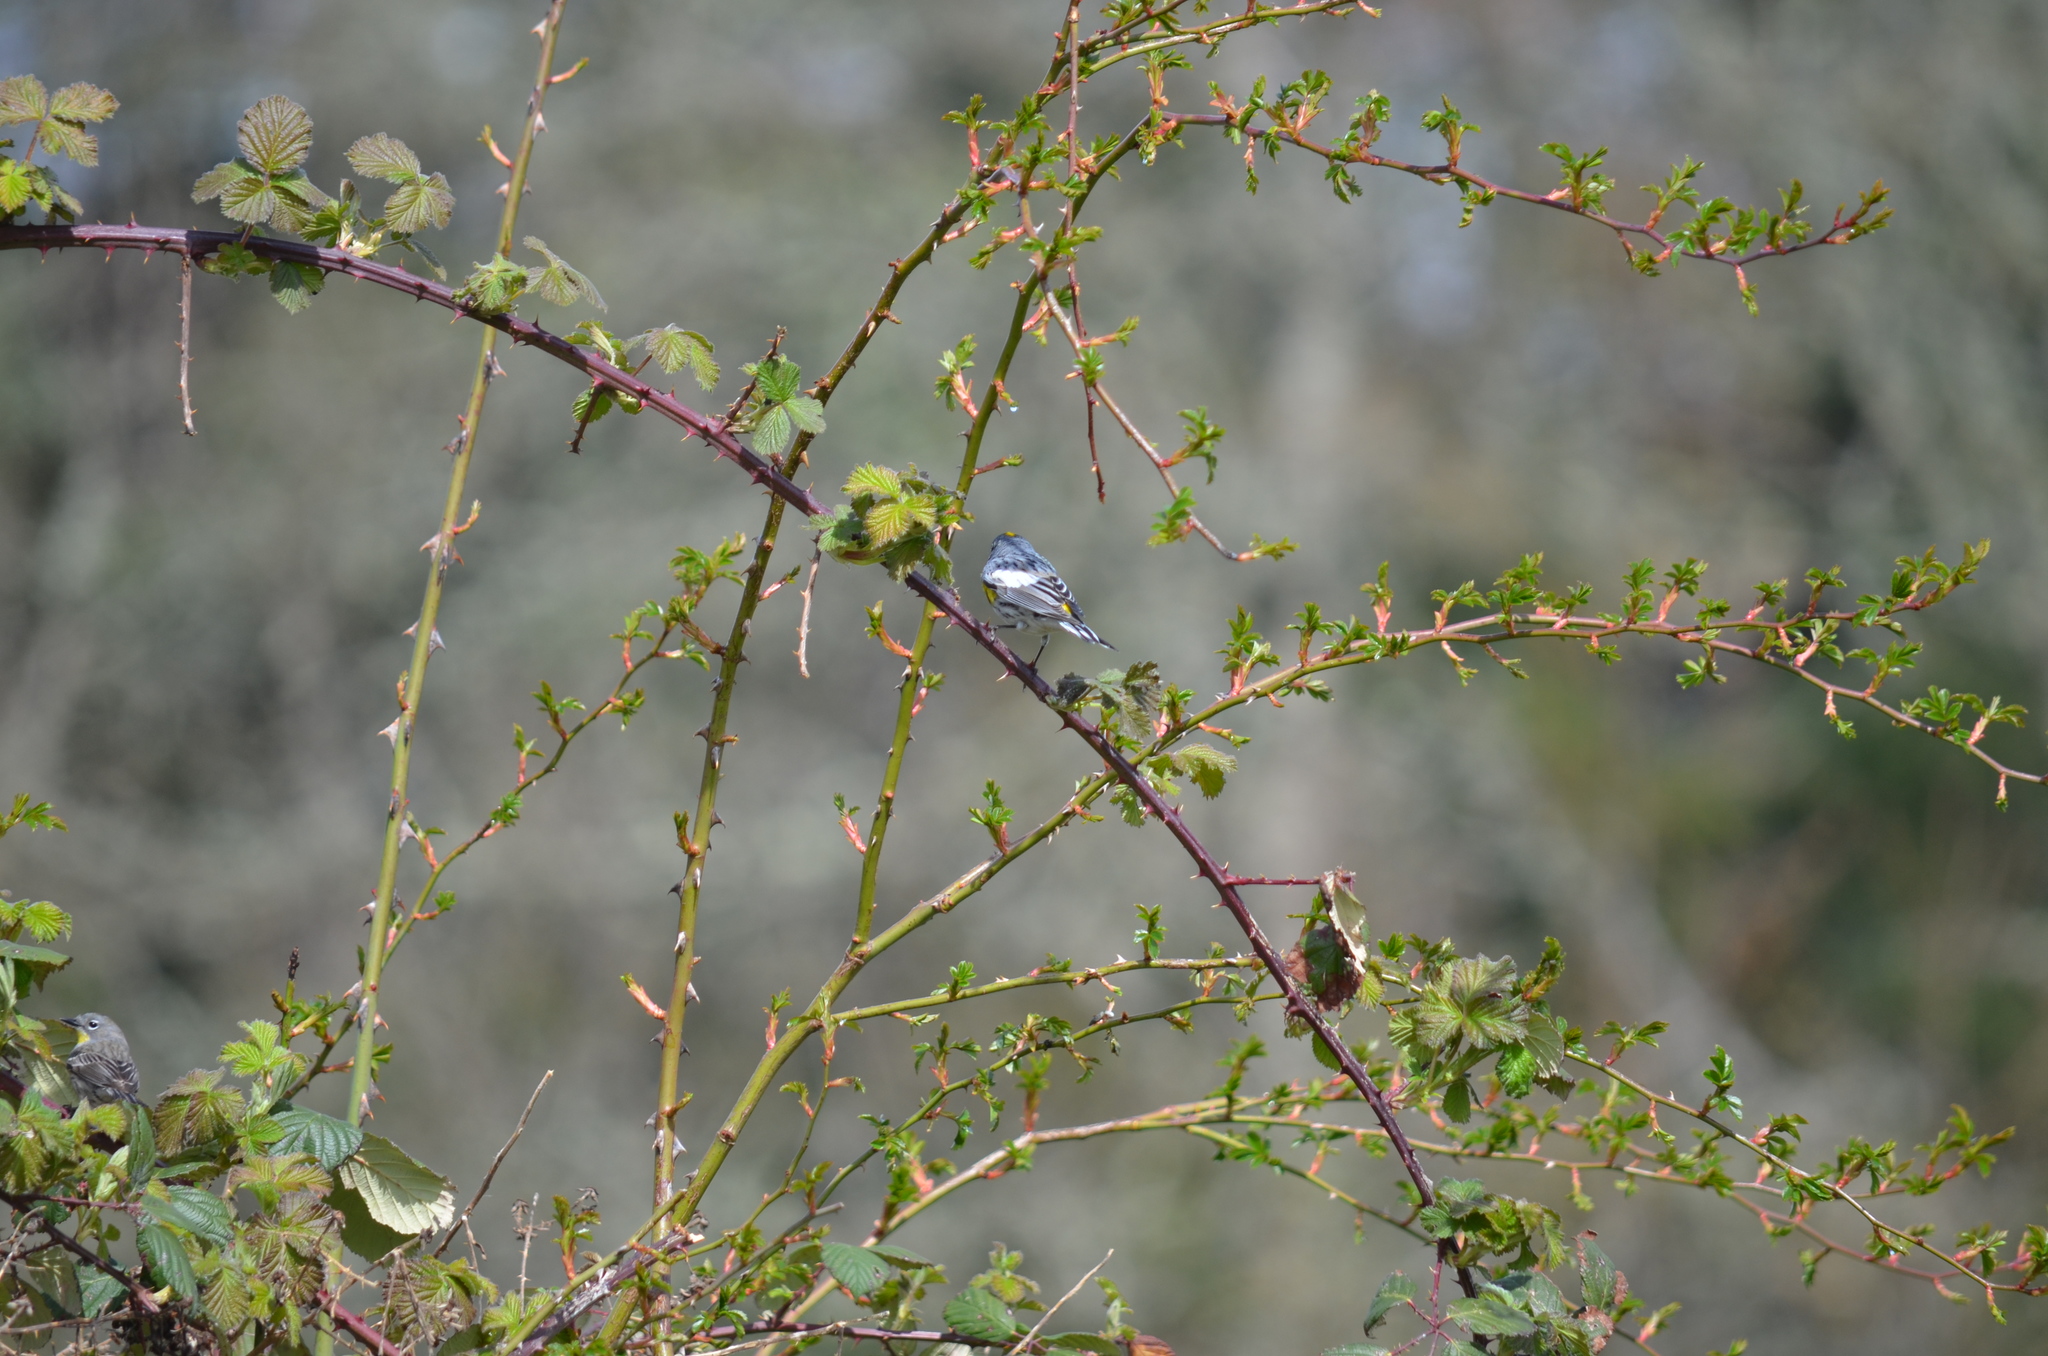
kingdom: Animalia
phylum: Chordata
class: Aves
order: Passeriformes
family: Parulidae
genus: Setophaga
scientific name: Setophaga auduboni
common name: Audubon's warbler
